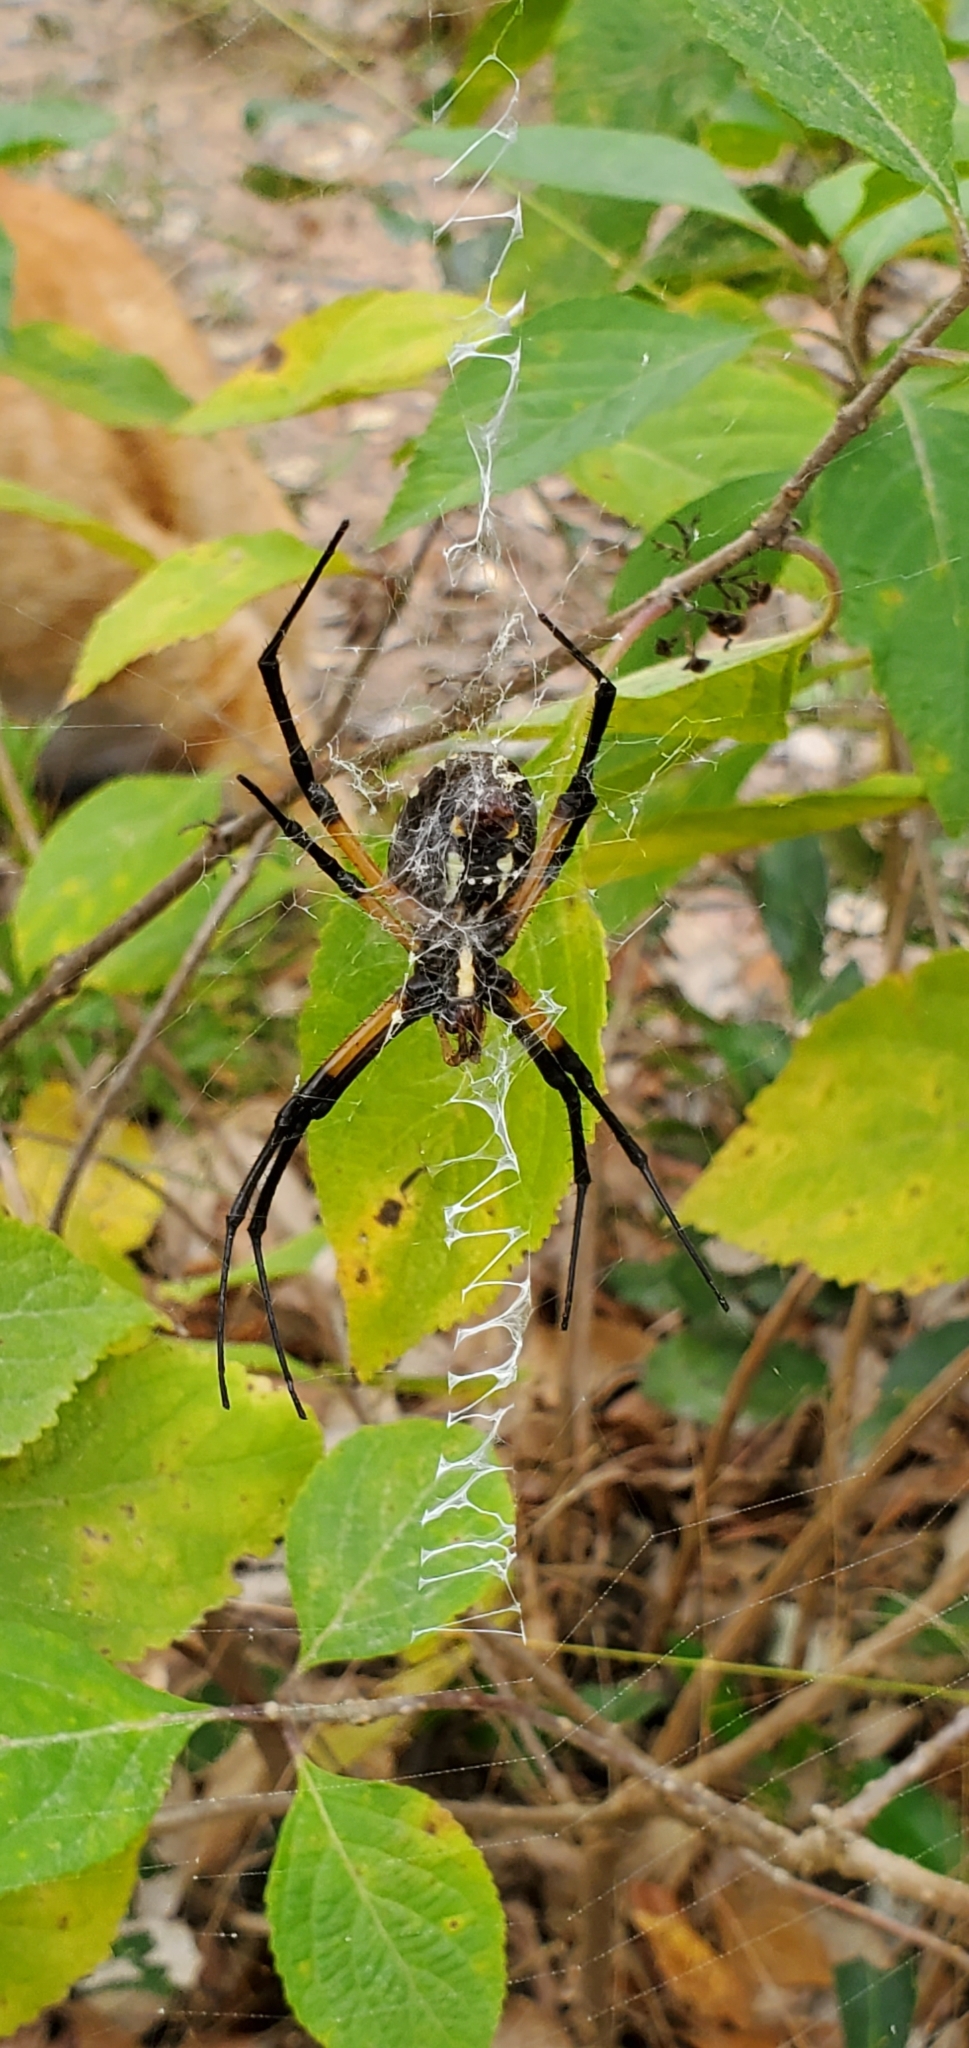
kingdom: Animalia
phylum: Arthropoda
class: Arachnida
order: Araneae
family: Araneidae
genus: Argiope
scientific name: Argiope aurantia
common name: Orb weavers
